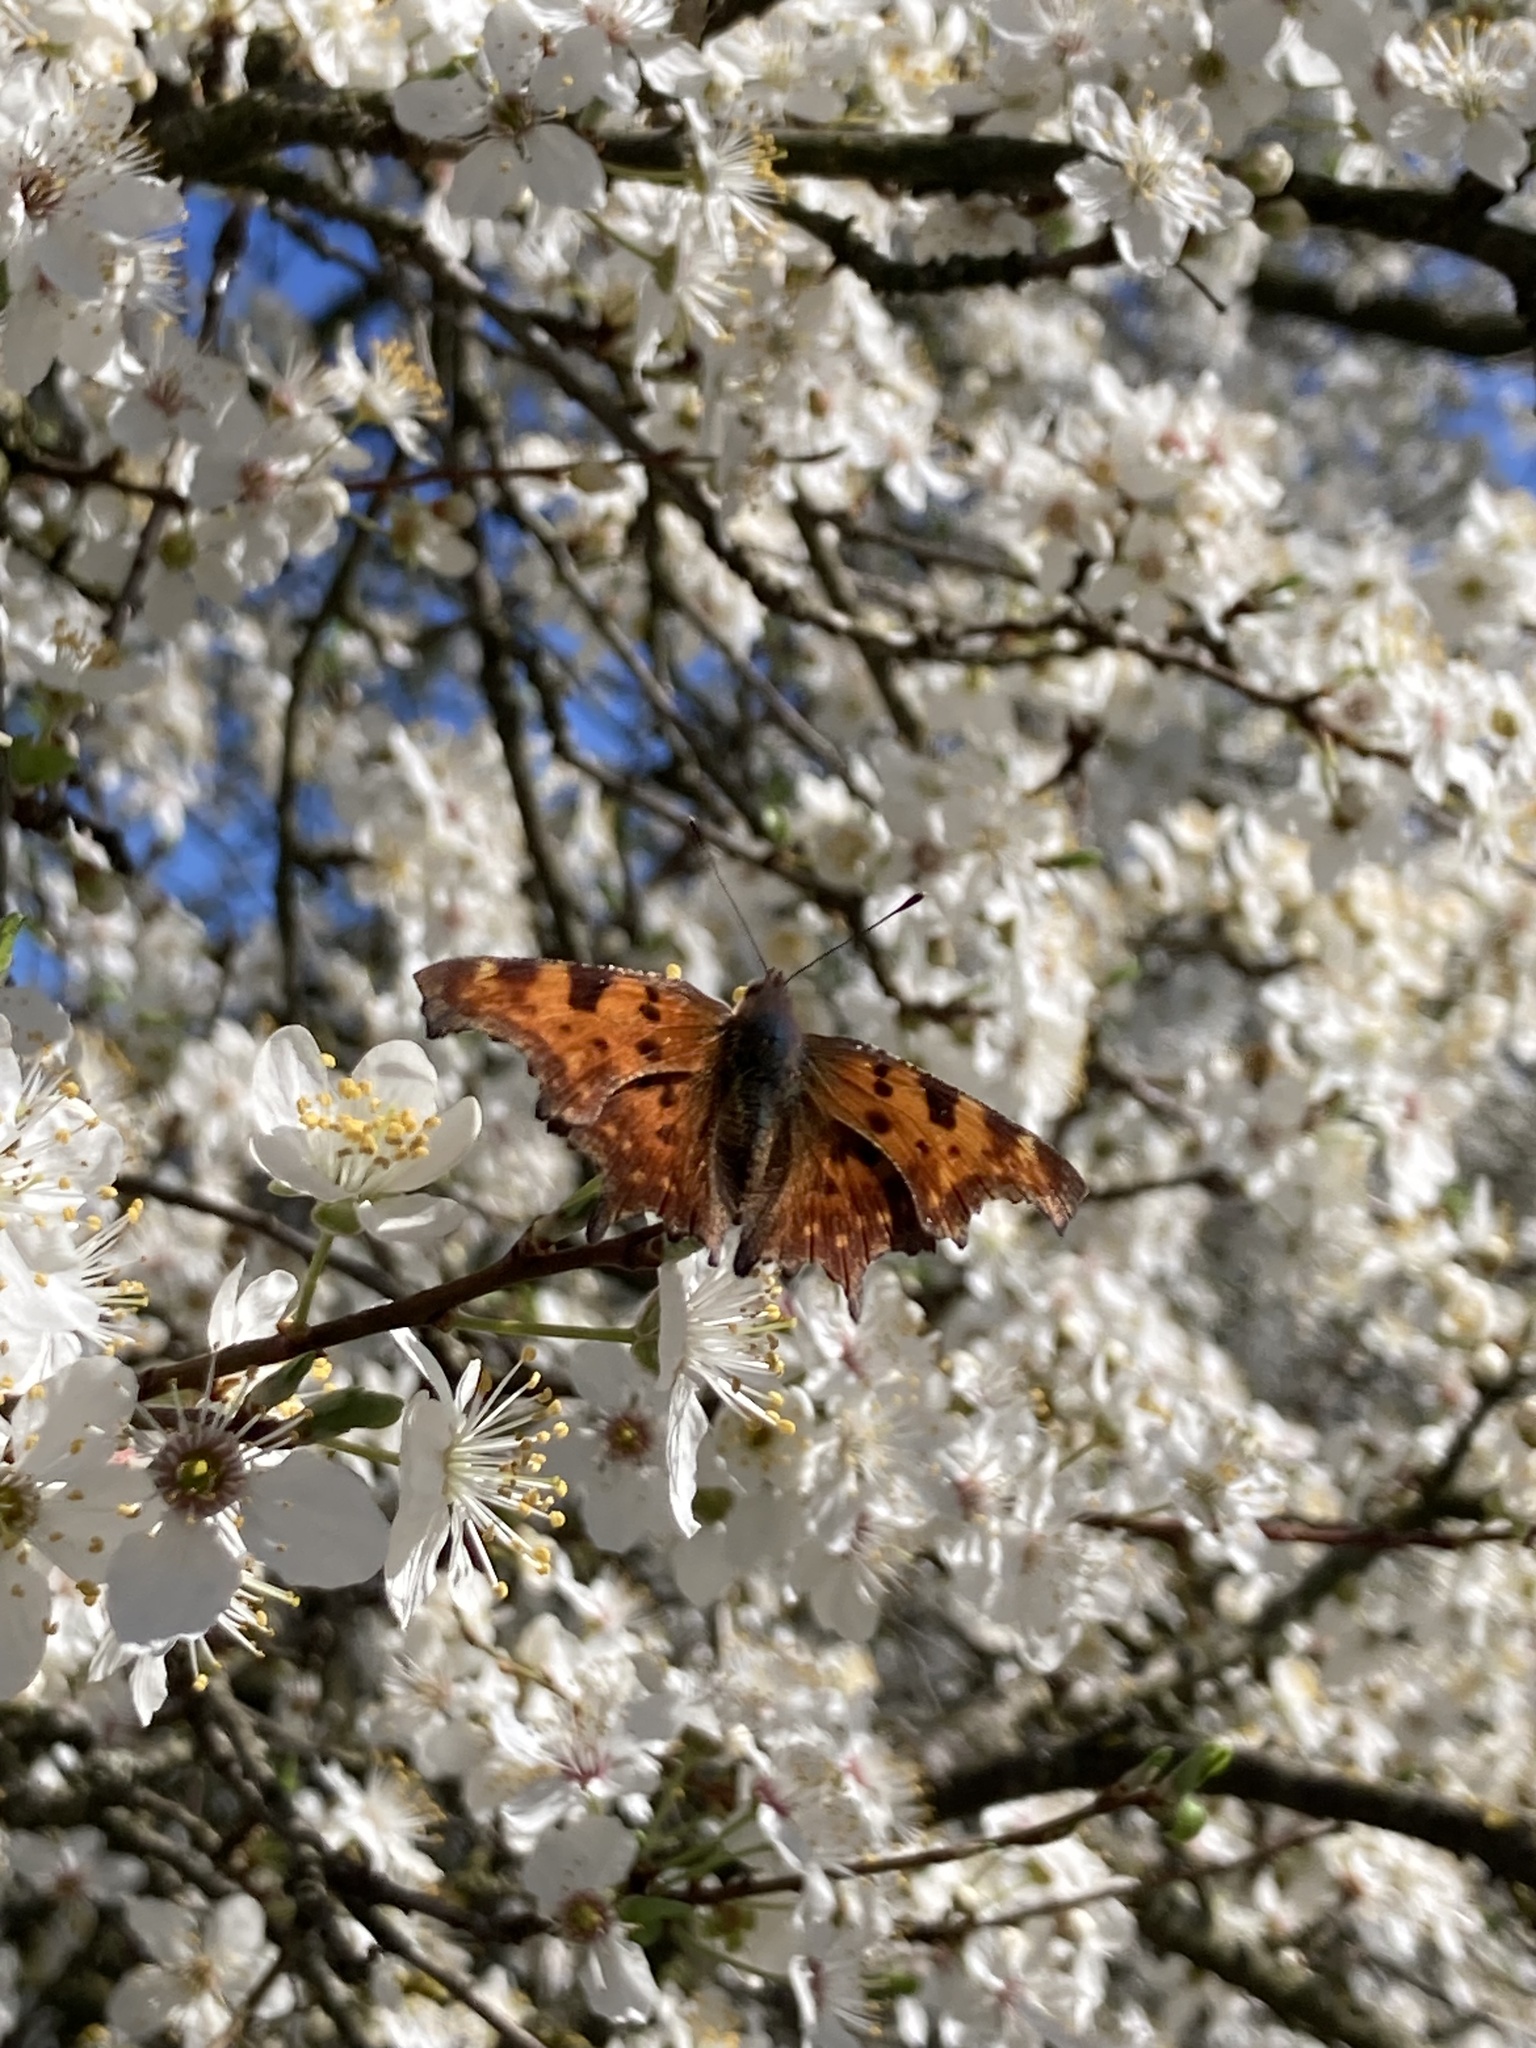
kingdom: Animalia
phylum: Arthropoda
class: Insecta
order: Lepidoptera
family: Nymphalidae
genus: Polygonia
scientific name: Polygonia c-album
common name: Comma
